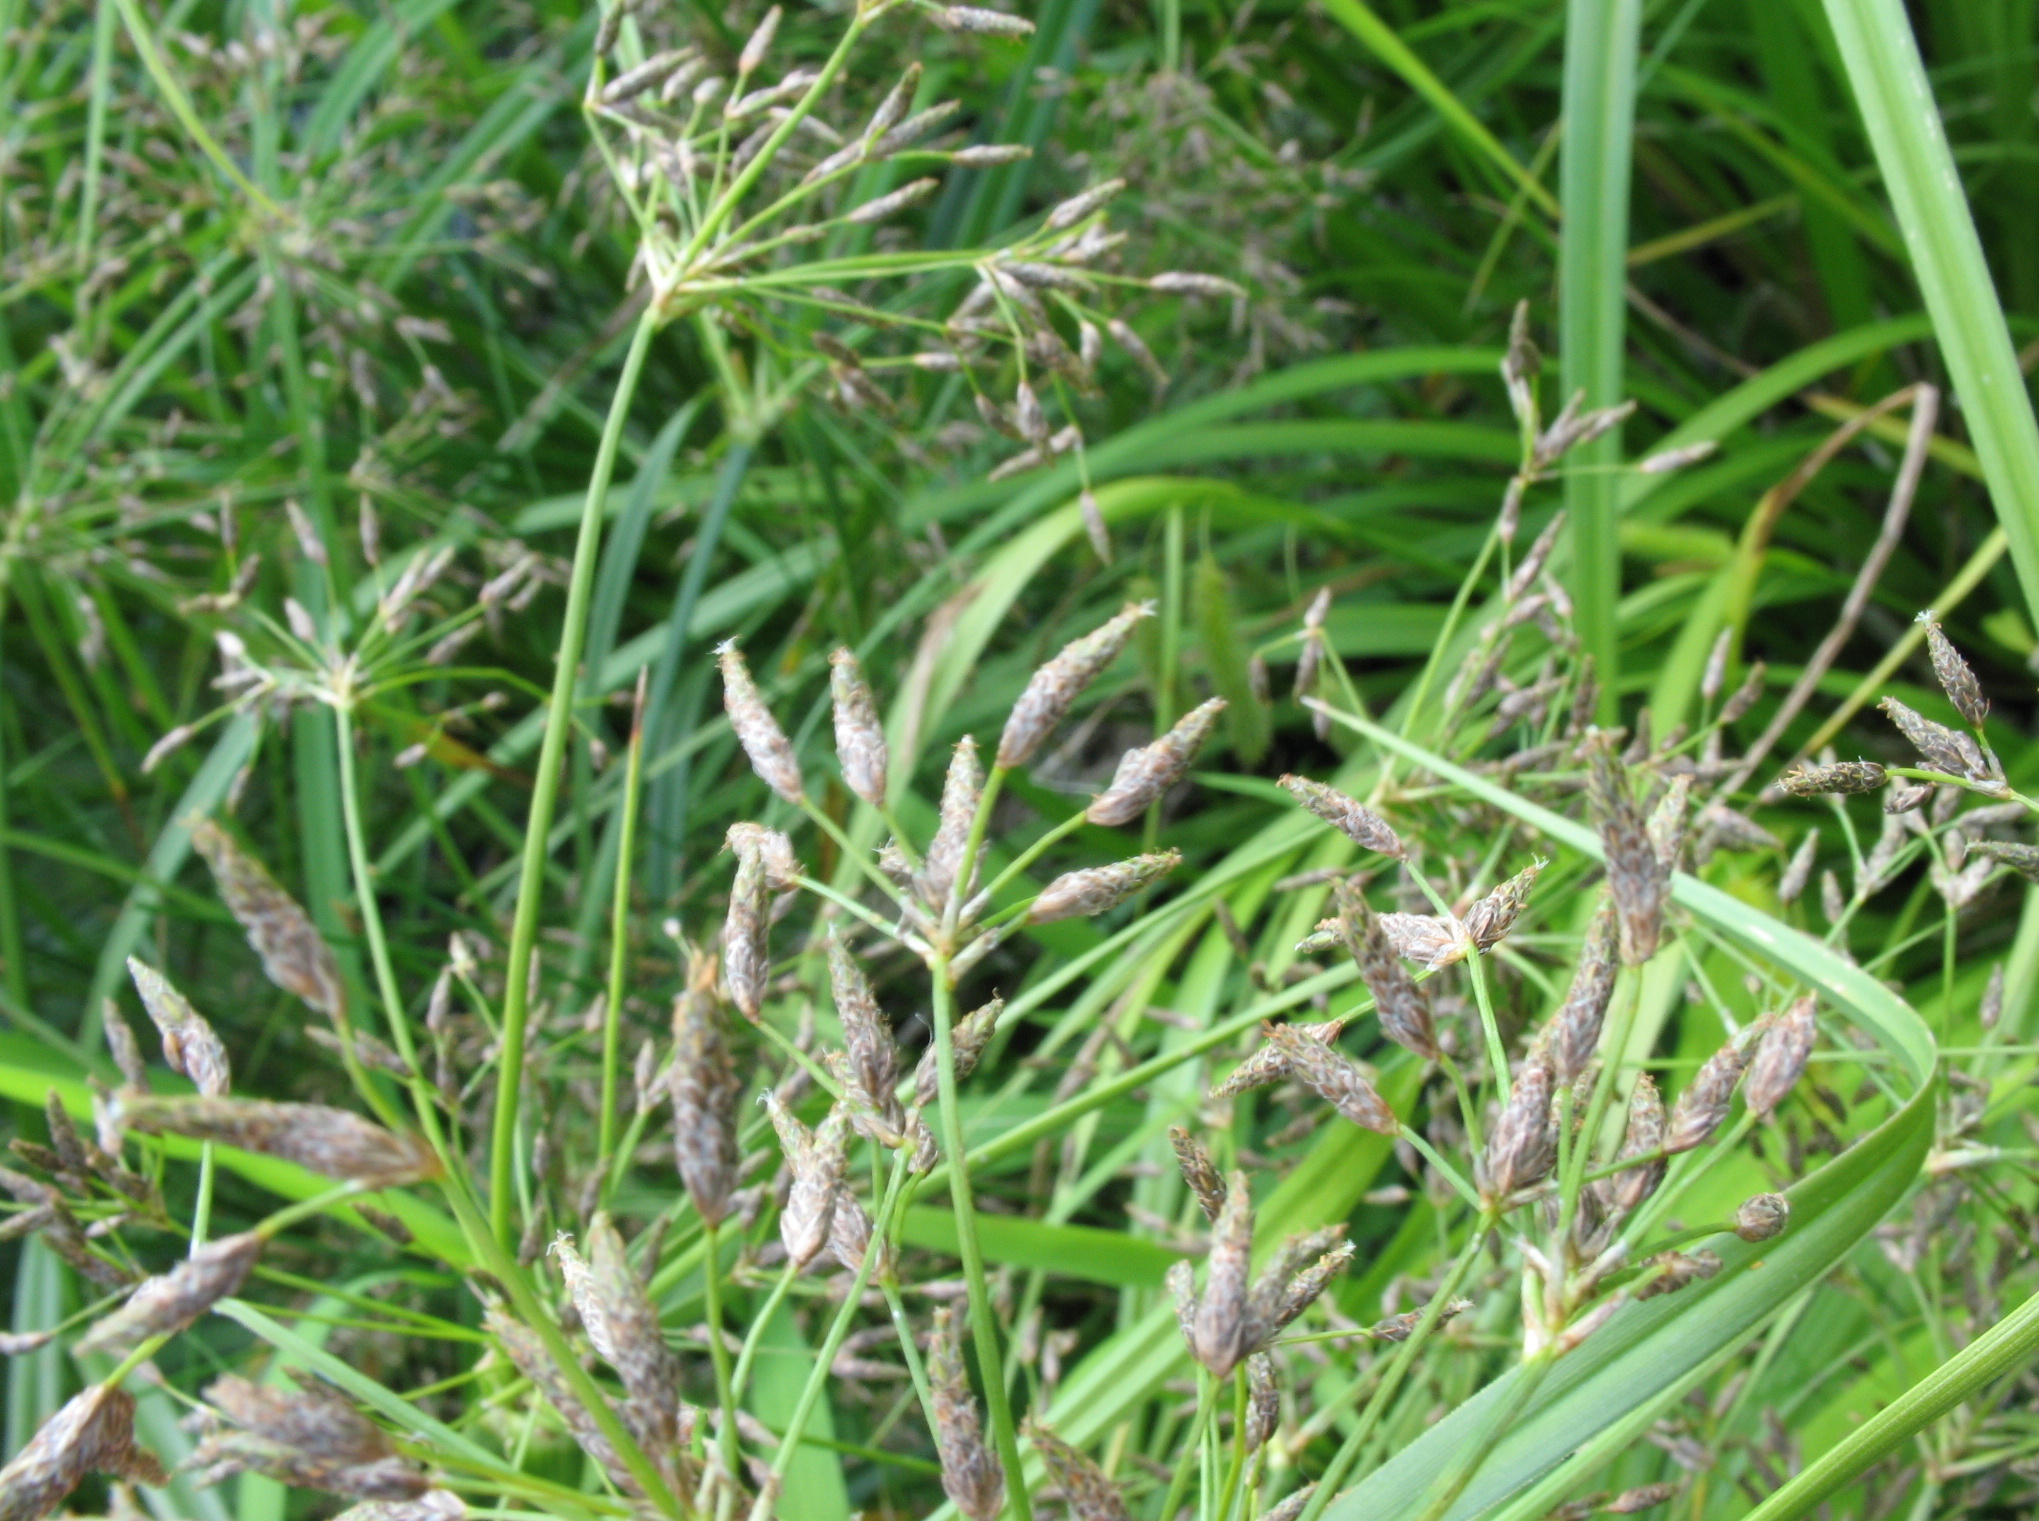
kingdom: Plantae
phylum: Tracheophyta
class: Liliopsida
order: Poales
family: Cyperaceae
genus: Scirpus
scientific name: Scirpus radicans
